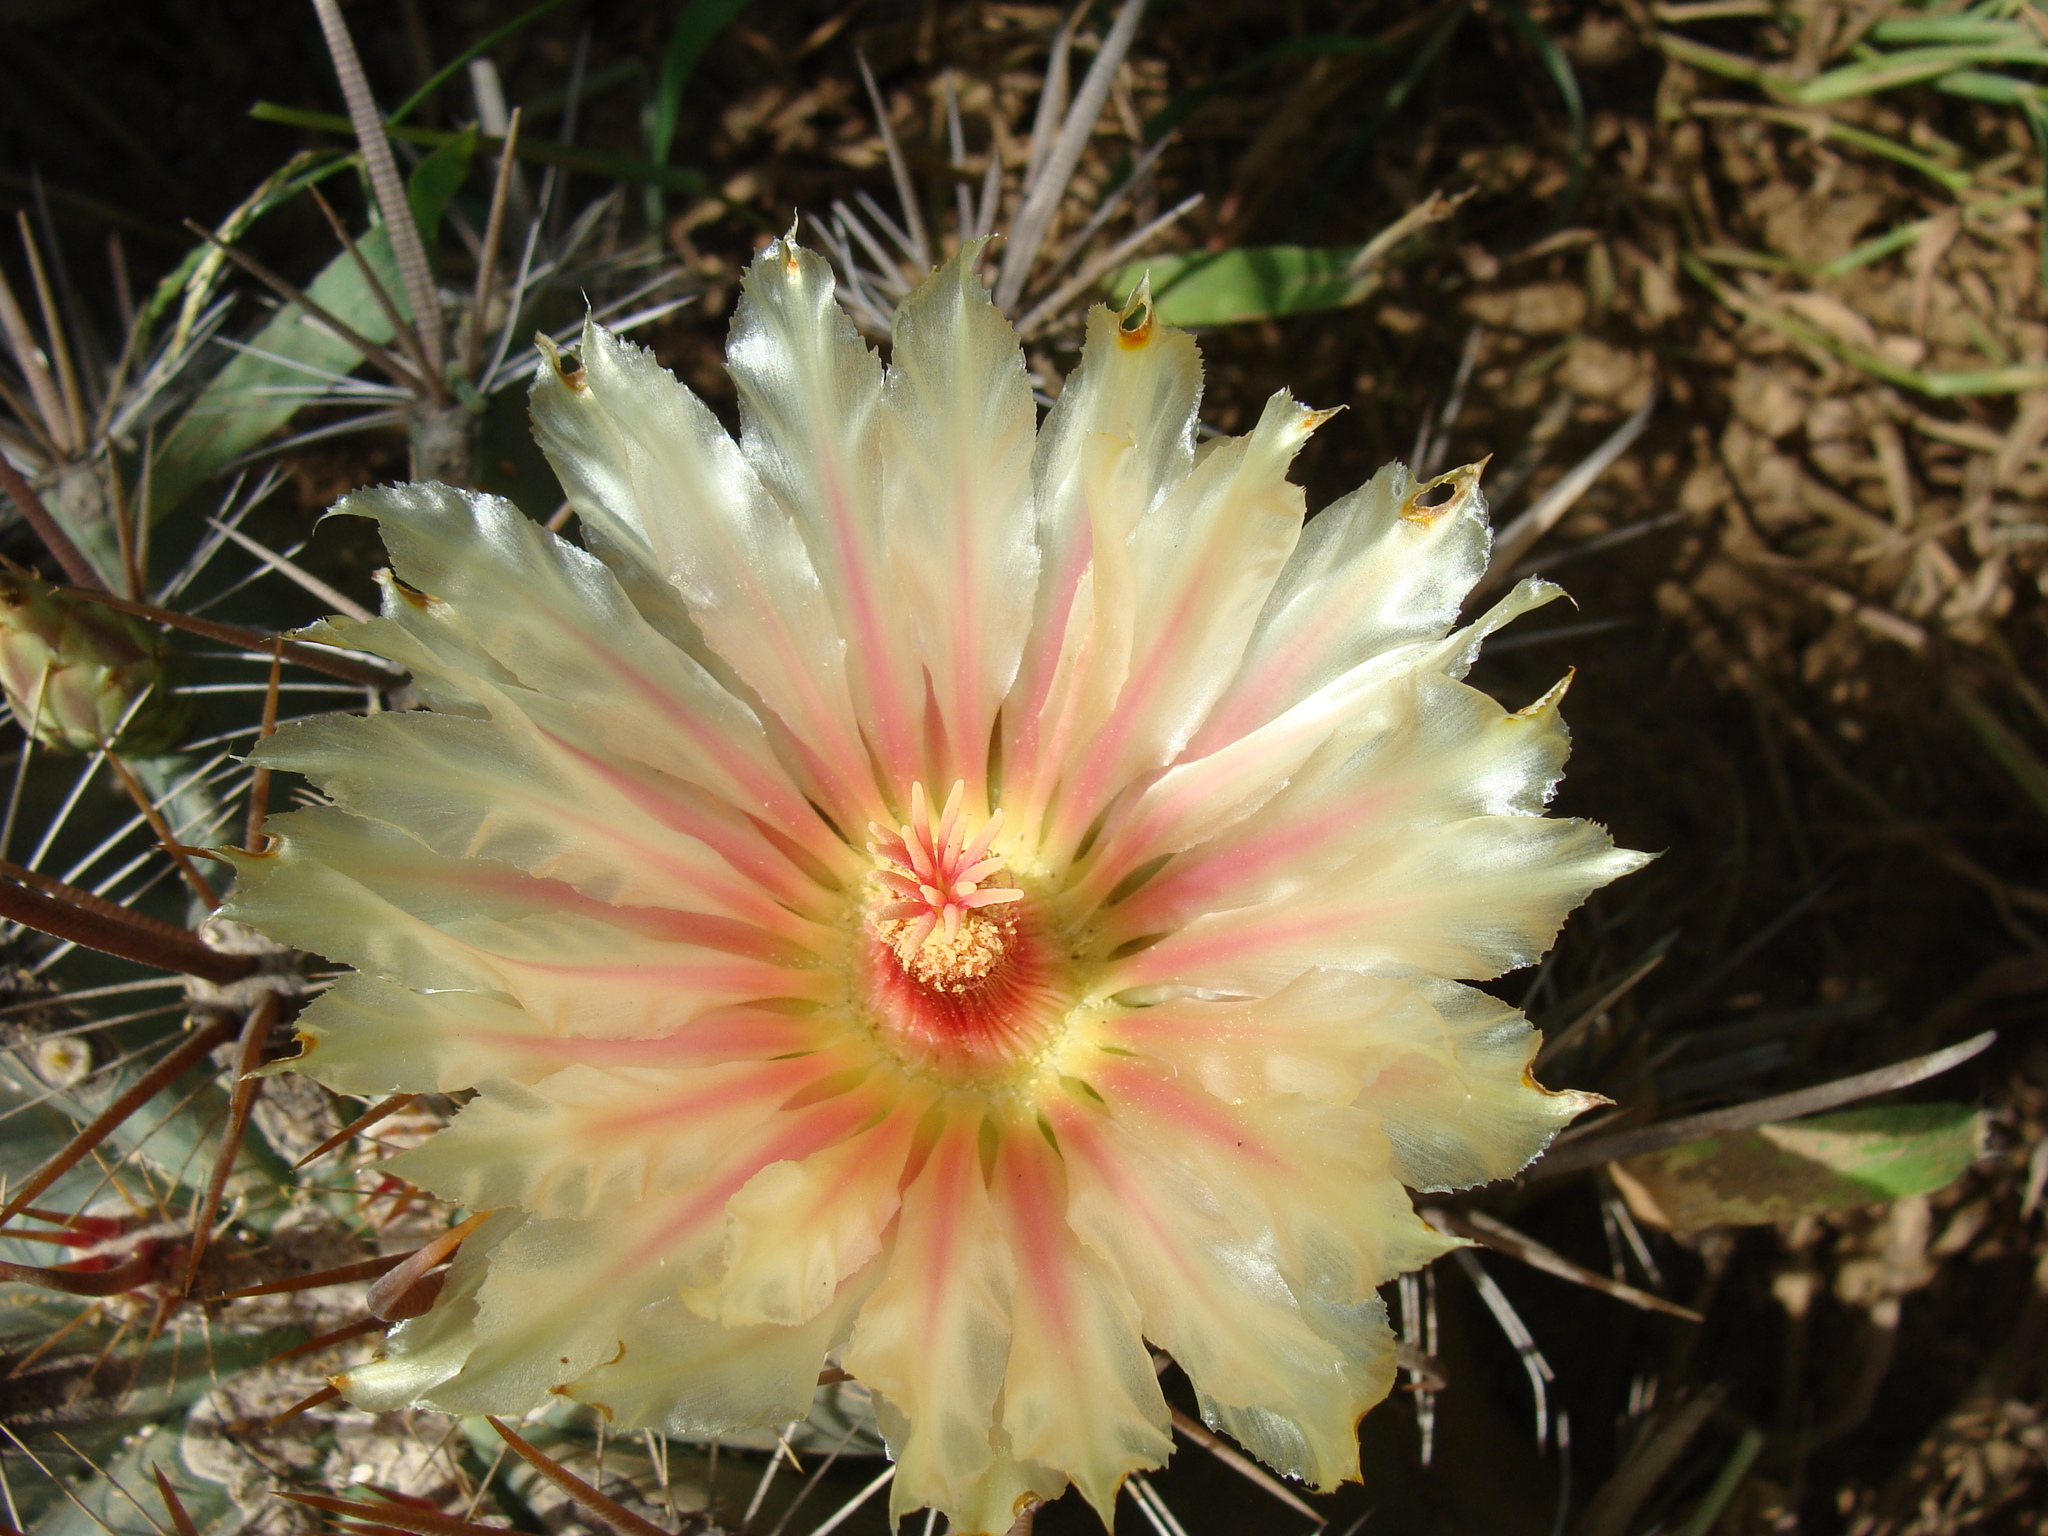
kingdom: Plantae
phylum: Tracheophyta
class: Magnoliopsida
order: Caryophyllales
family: Cactaceae
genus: Ferocactus
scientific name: Ferocactus townsendianus
